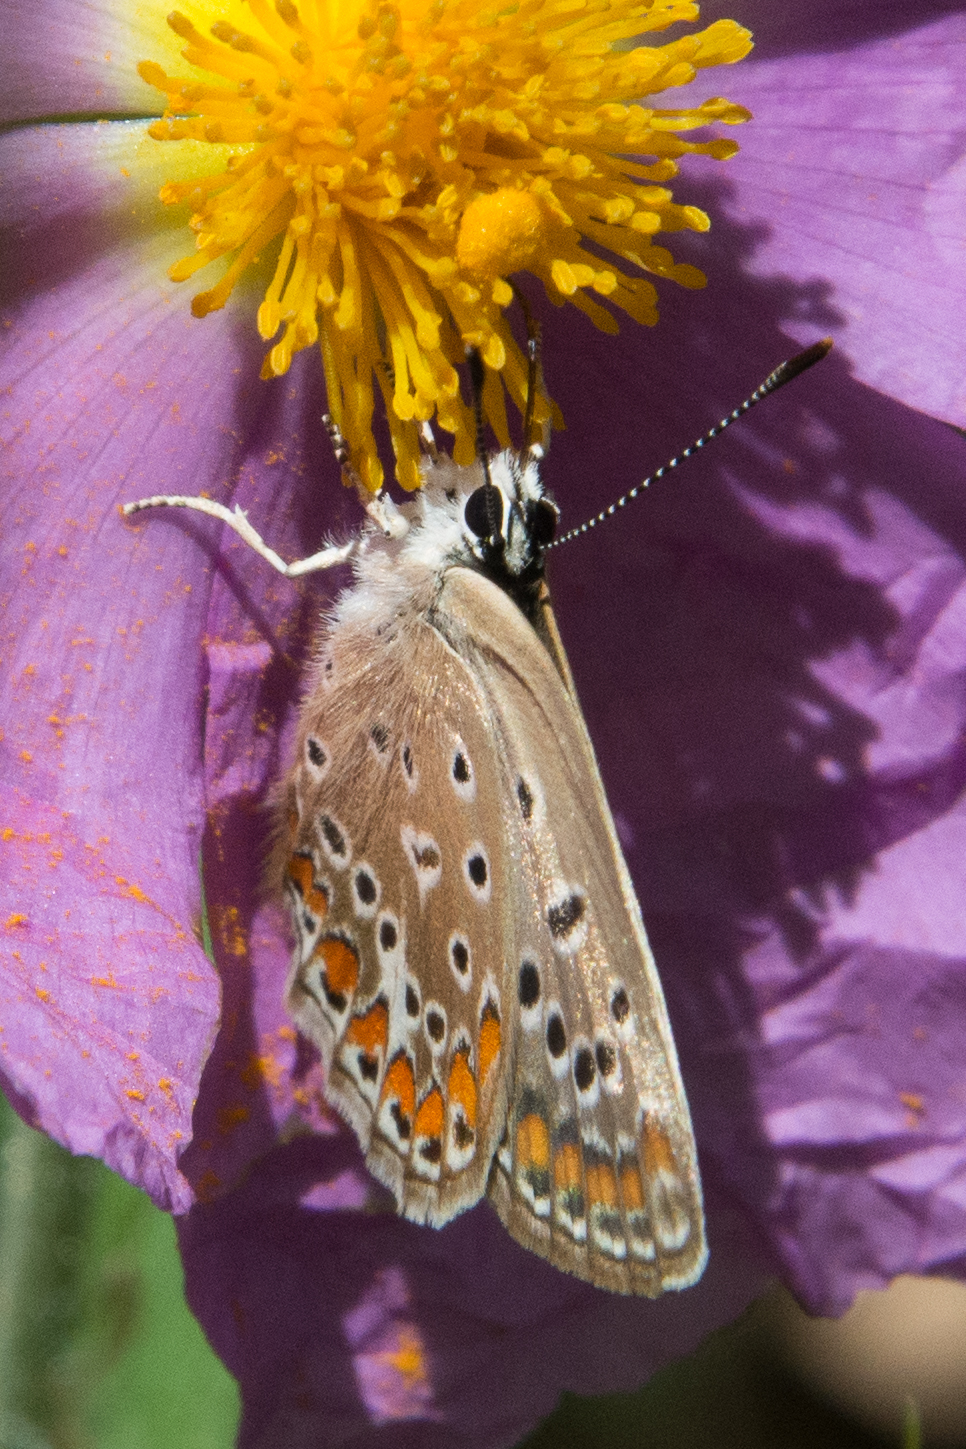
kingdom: Animalia
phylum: Arthropoda
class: Insecta
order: Lepidoptera
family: Lycaenidae
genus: Polyommatus
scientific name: Polyommatus celina
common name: Austaut's blue
